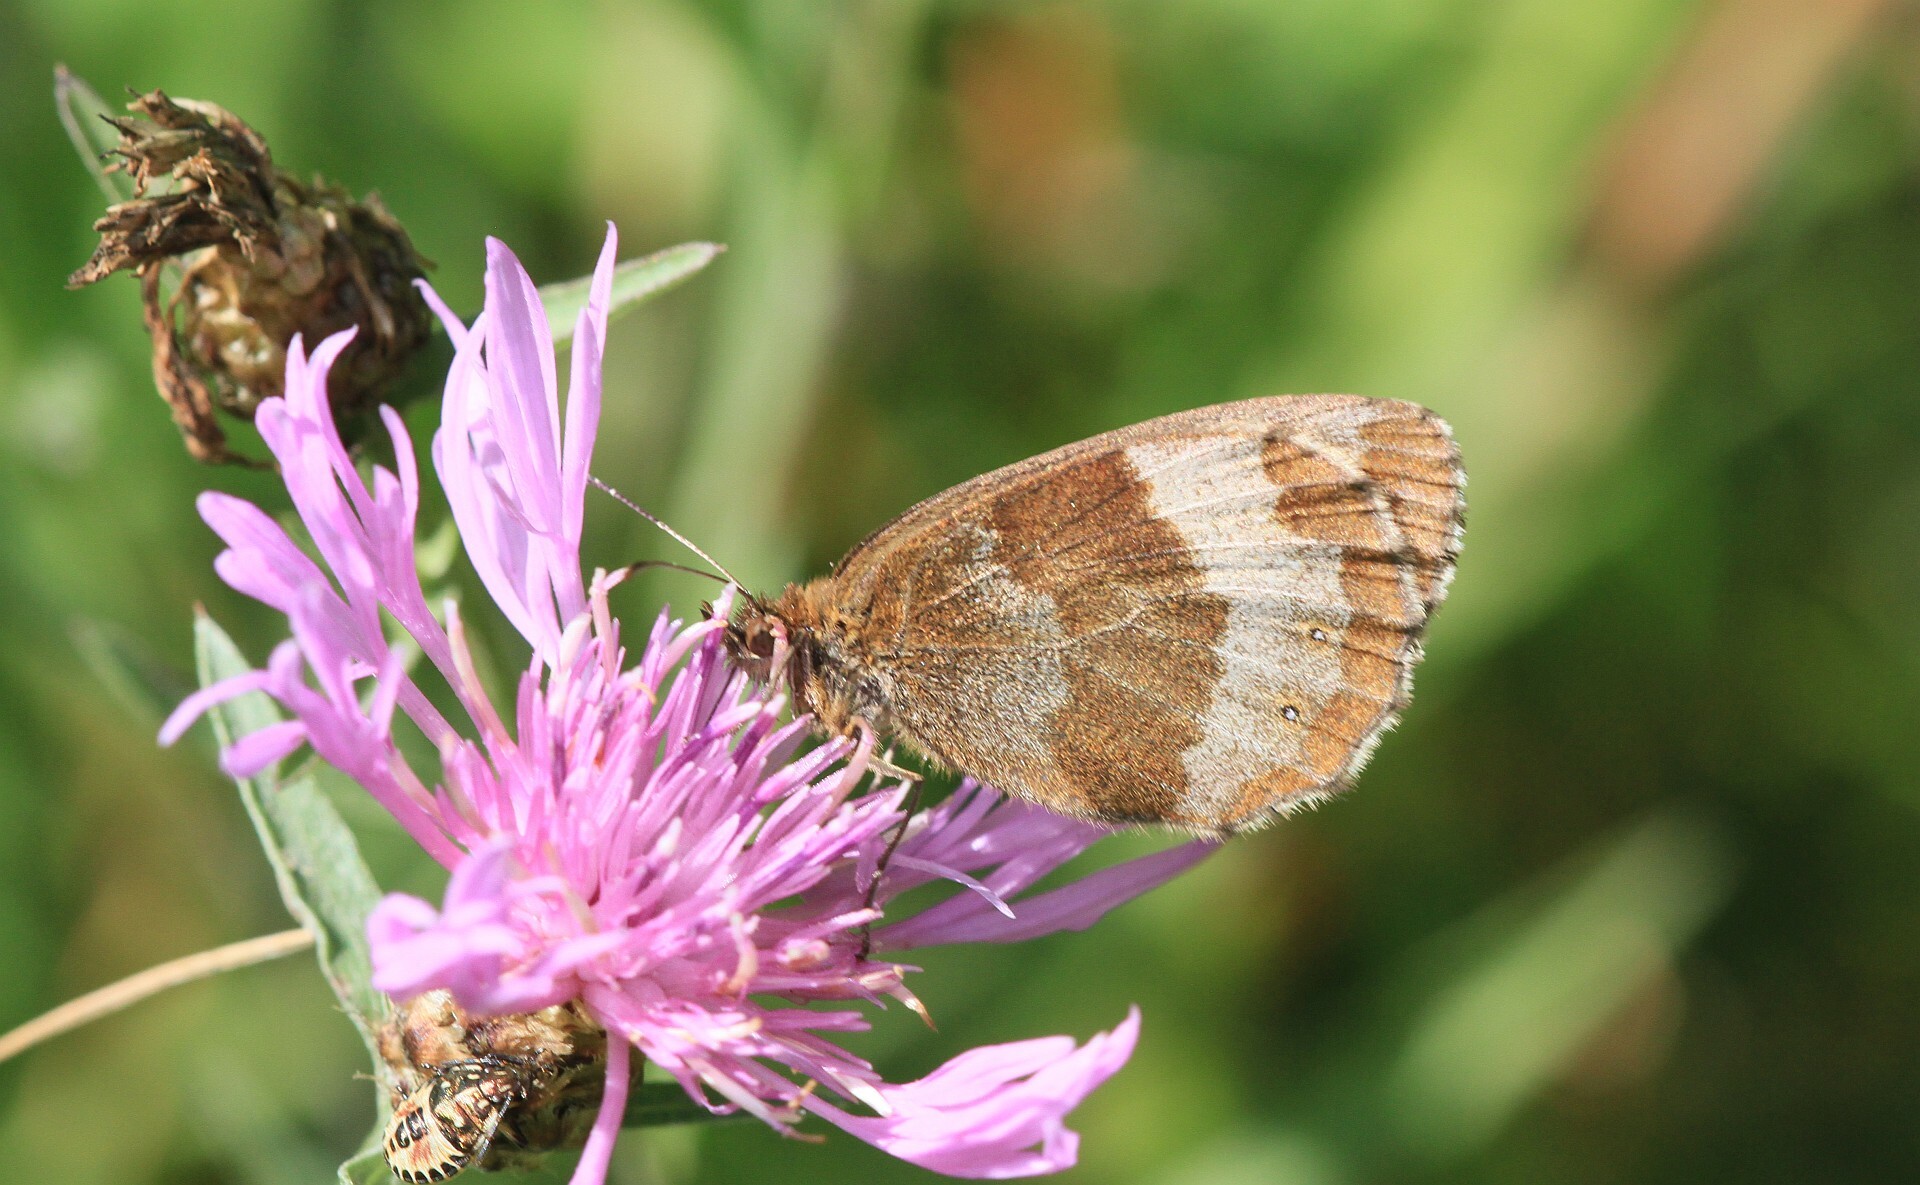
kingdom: Animalia
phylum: Arthropoda
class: Insecta
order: Lepidoptera
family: Nymphalidae
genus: Erebia
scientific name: Erebia aethiops
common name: Scotch argus
